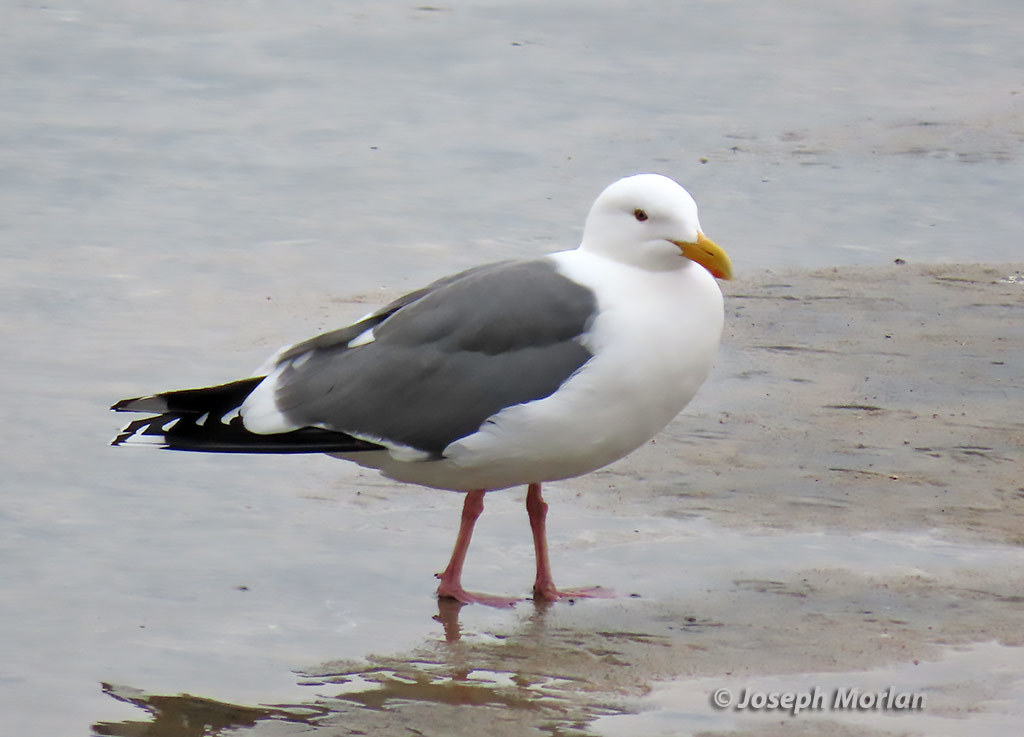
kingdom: Animalia
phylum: Chordata
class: Aves
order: Charadriiformes
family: Laridae
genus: Larus
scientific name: Larus occidentalis
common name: Western gull
